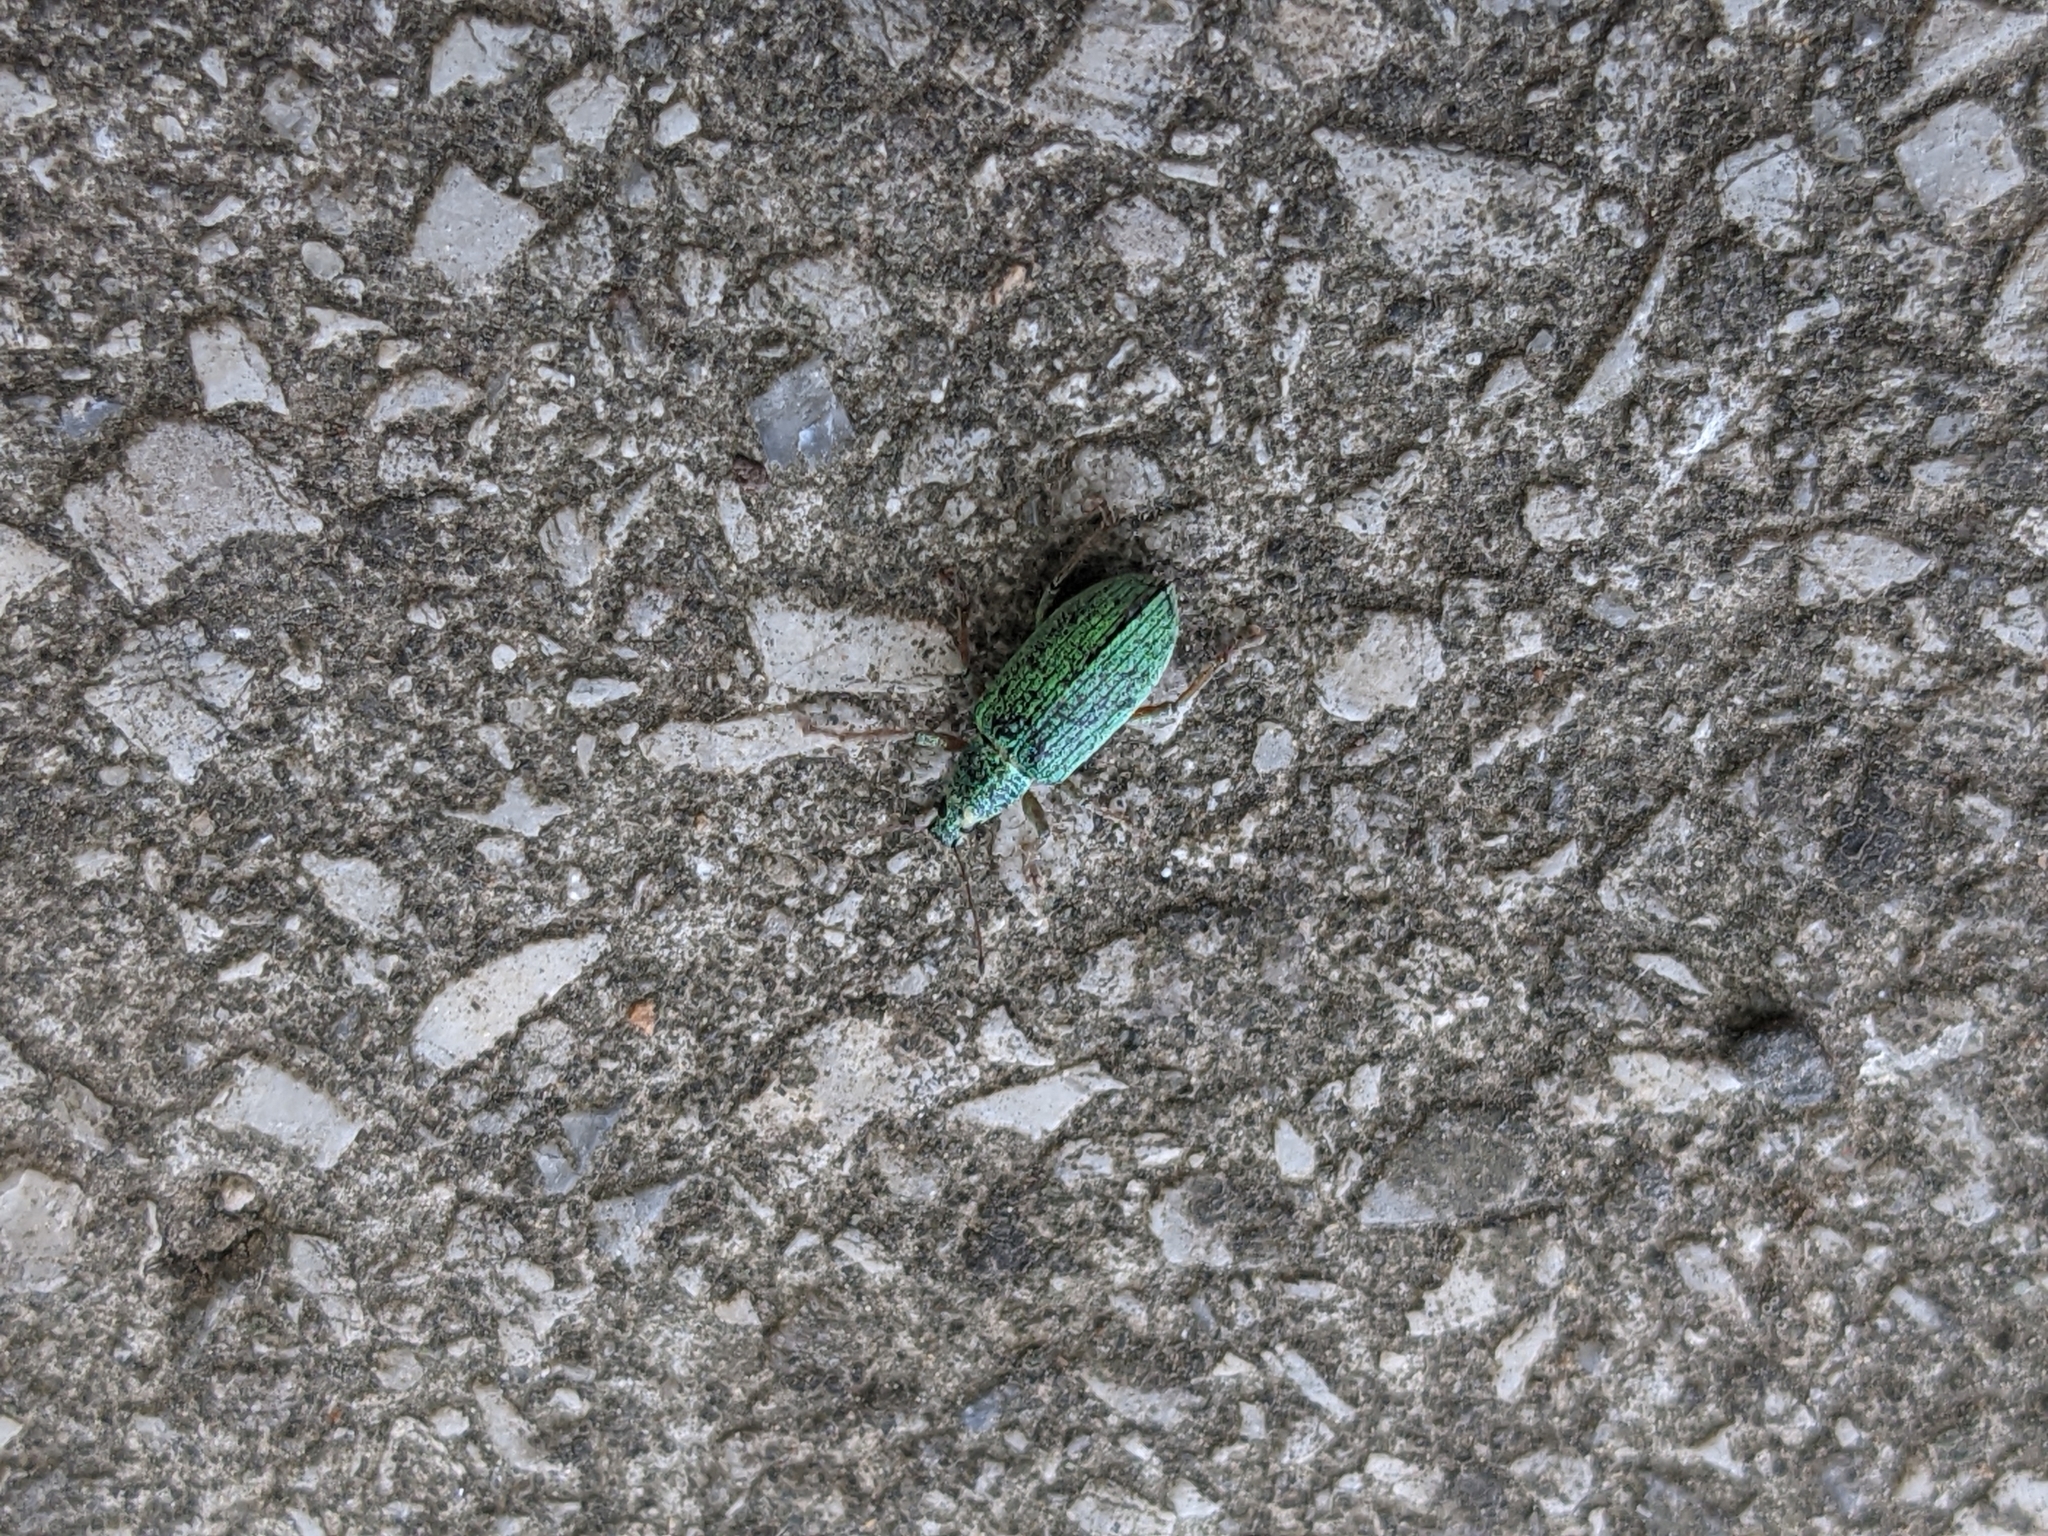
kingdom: Animalia
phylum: Arthropoda
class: Insecta
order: Coleoptera
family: Curculionidae
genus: Polydrusus
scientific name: Polydrusus formosus
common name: Weevil
